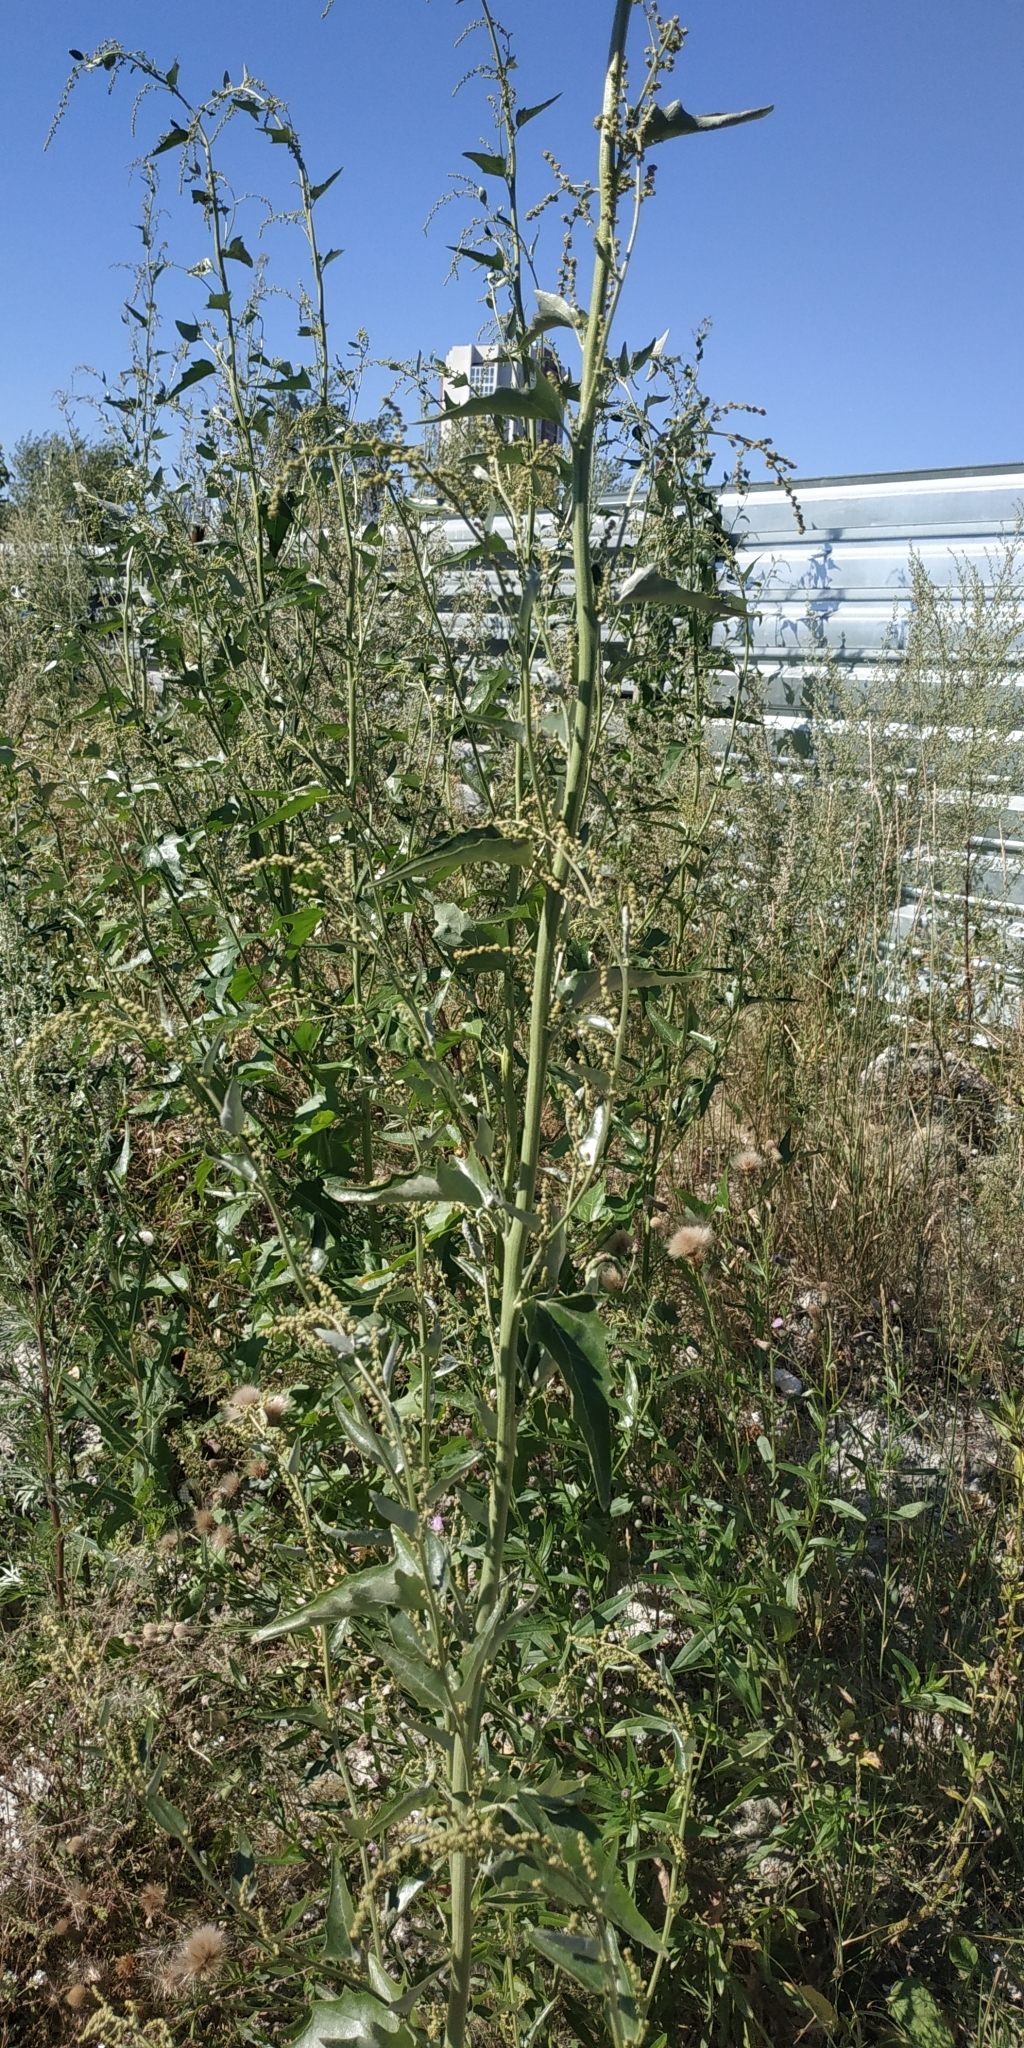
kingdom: Plantae
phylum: Tracheophyta
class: Magnoliopsida
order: Caryophyllales
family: Amaranthaceae
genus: Atriplex
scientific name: Atriplex sagittata
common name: Purple orache
